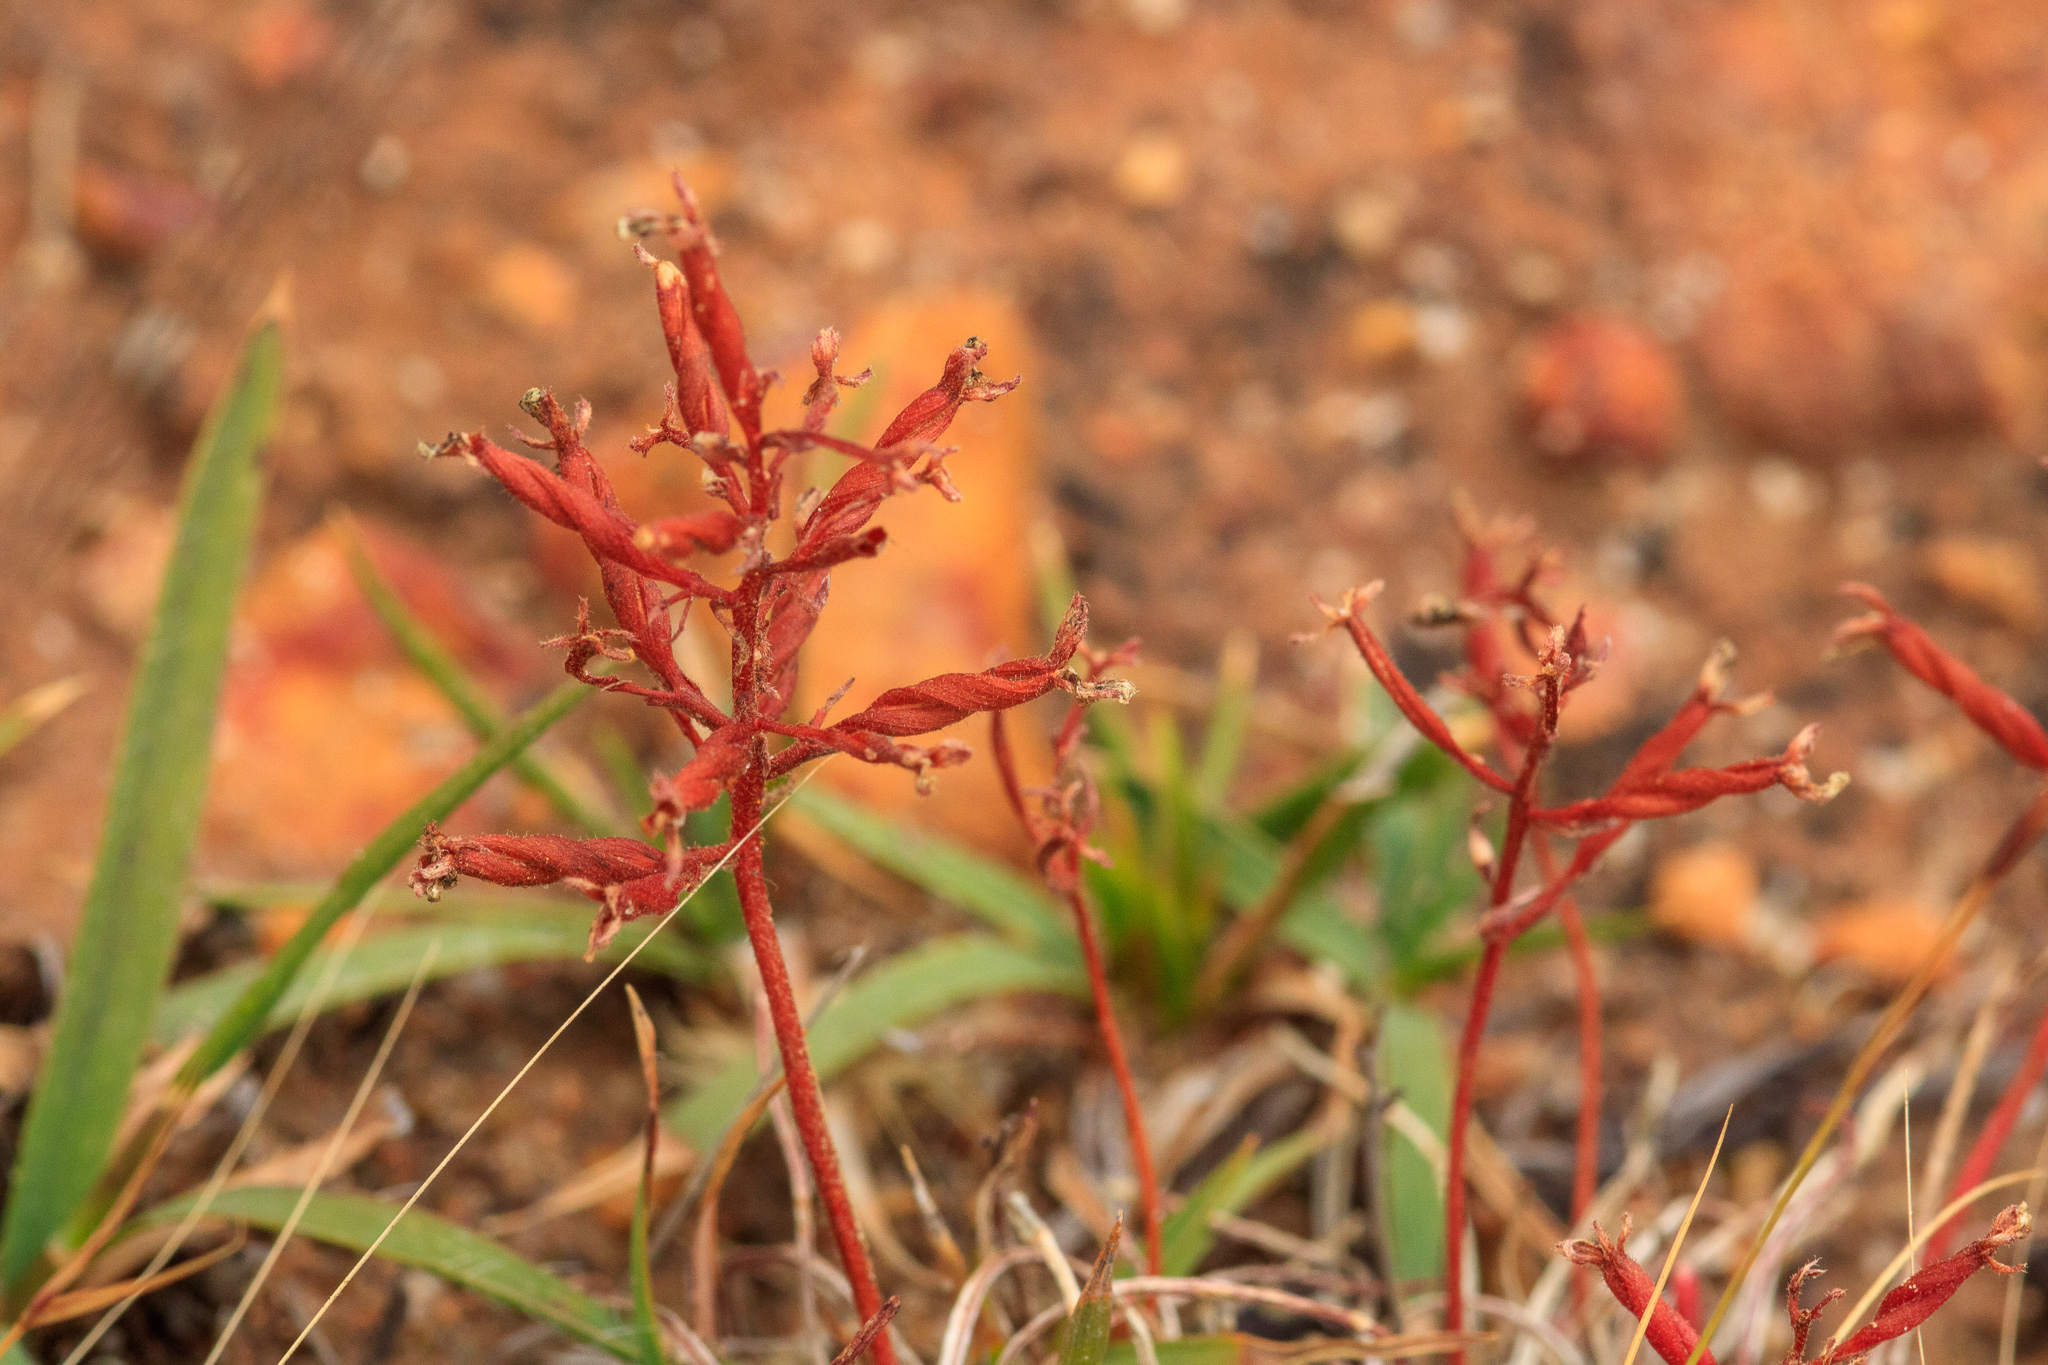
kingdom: Plantae
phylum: Tracheophyta
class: Magnoliopsida
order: Asterales
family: Stylidiaceae
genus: Stylidium
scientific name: Stylidium torticarpum
